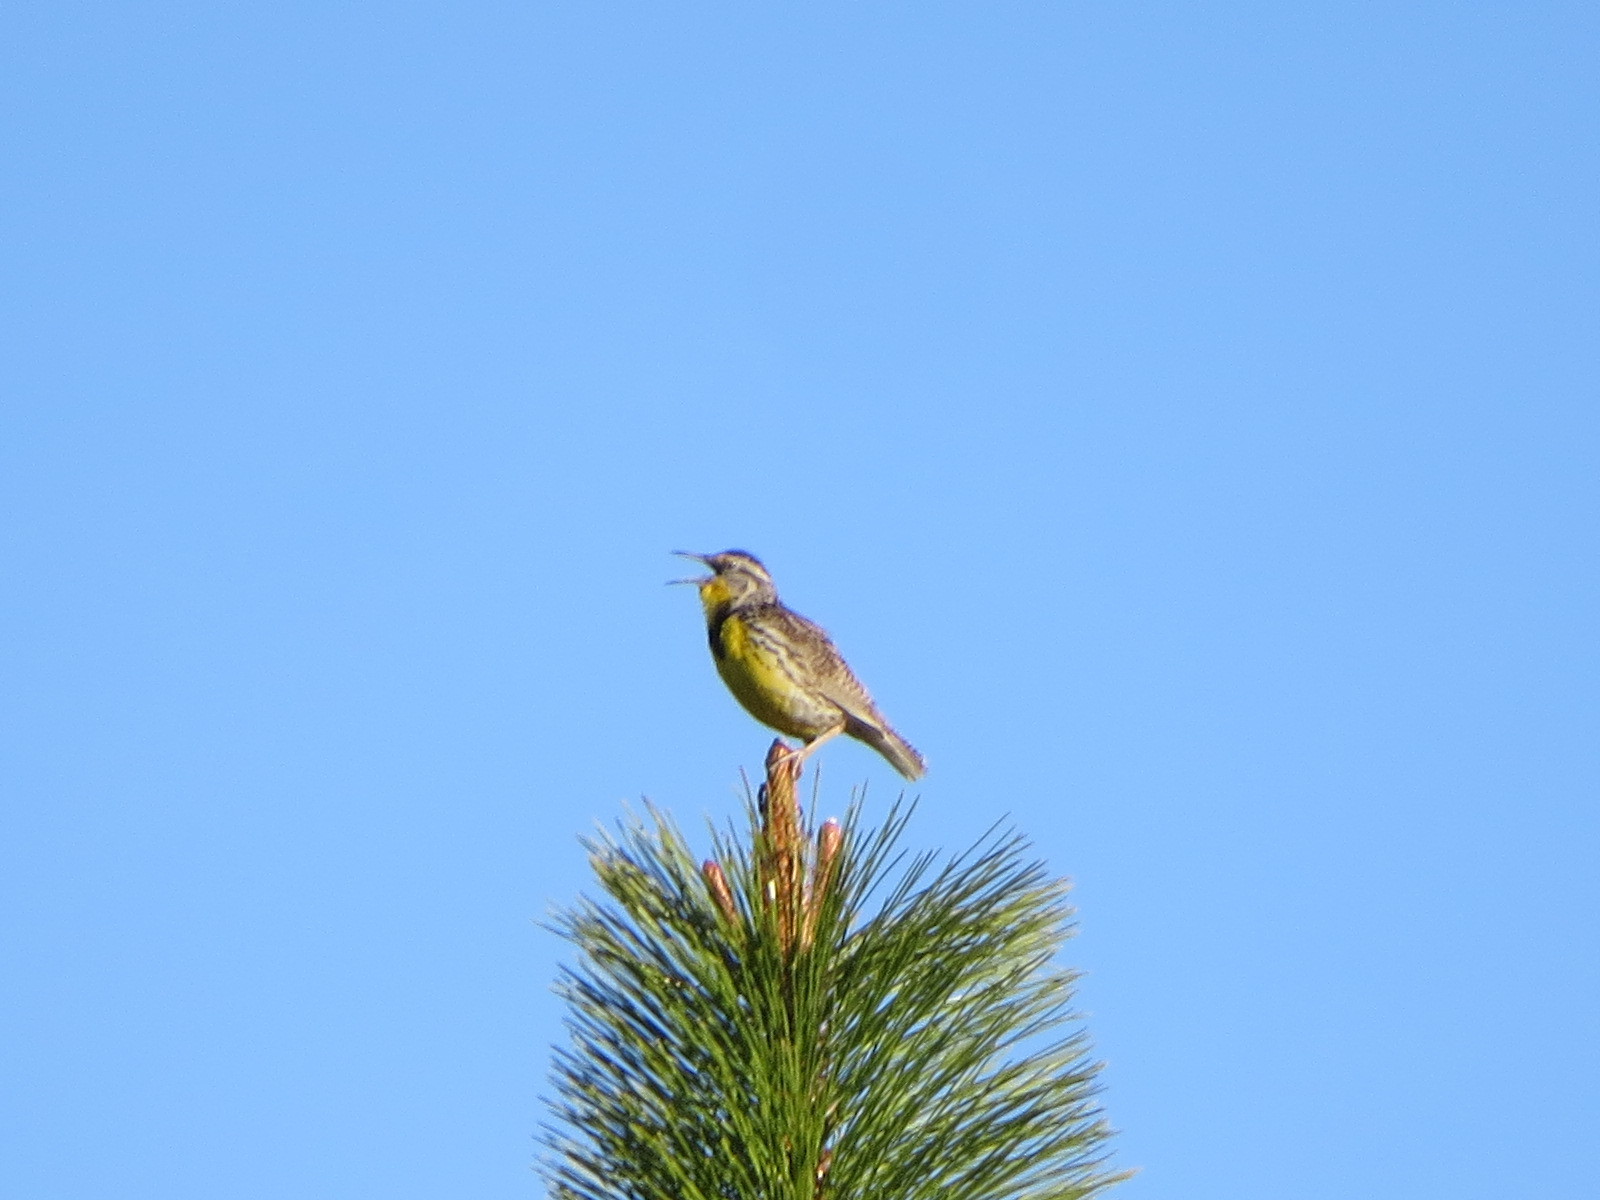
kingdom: Animalia
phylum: Chordata
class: Aves
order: Passeriformes
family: Icteridae
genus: Sturnella
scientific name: Sturnella neglecta
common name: Western meadowlark
